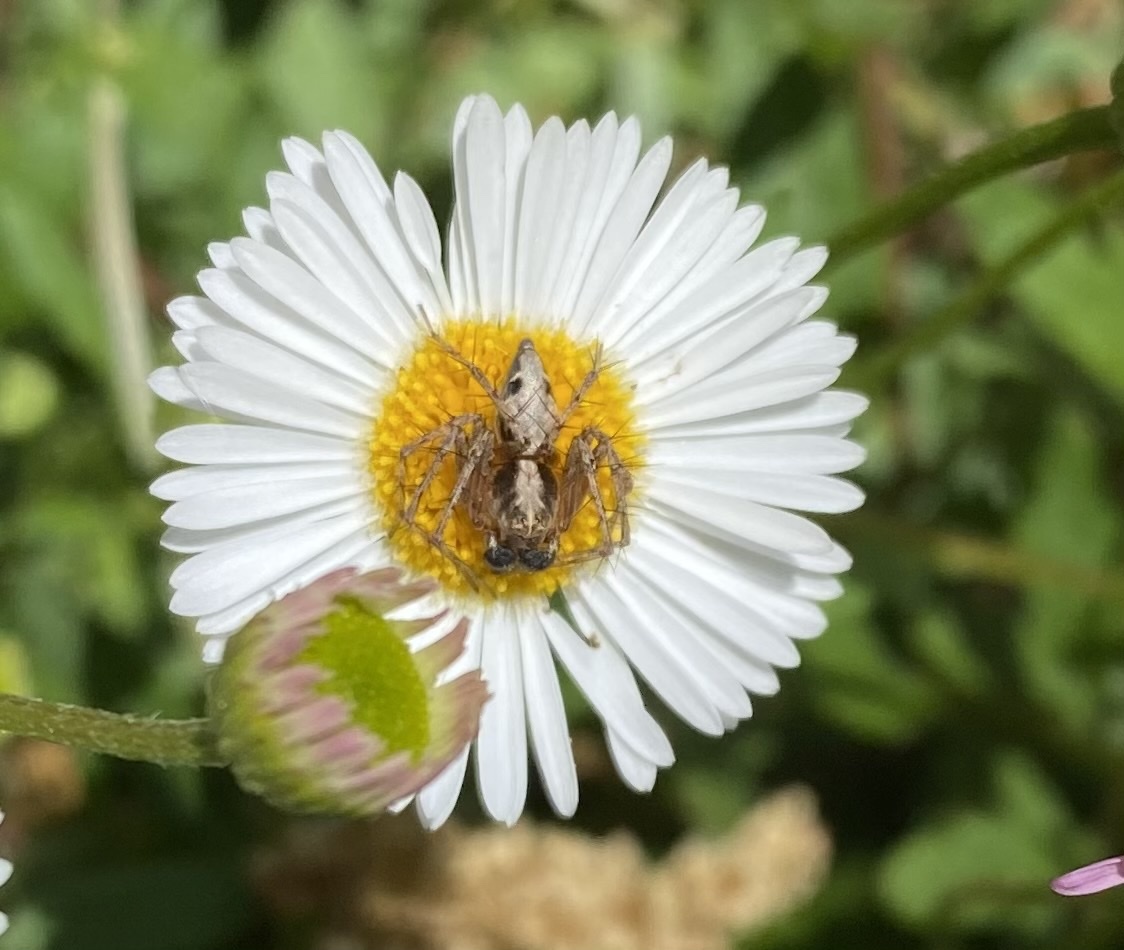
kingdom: Animalia
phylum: Arthropoda
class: Arachnida
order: Araneae
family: Oxyopidae
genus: Oxyopes
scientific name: Oxyopes scalaris
